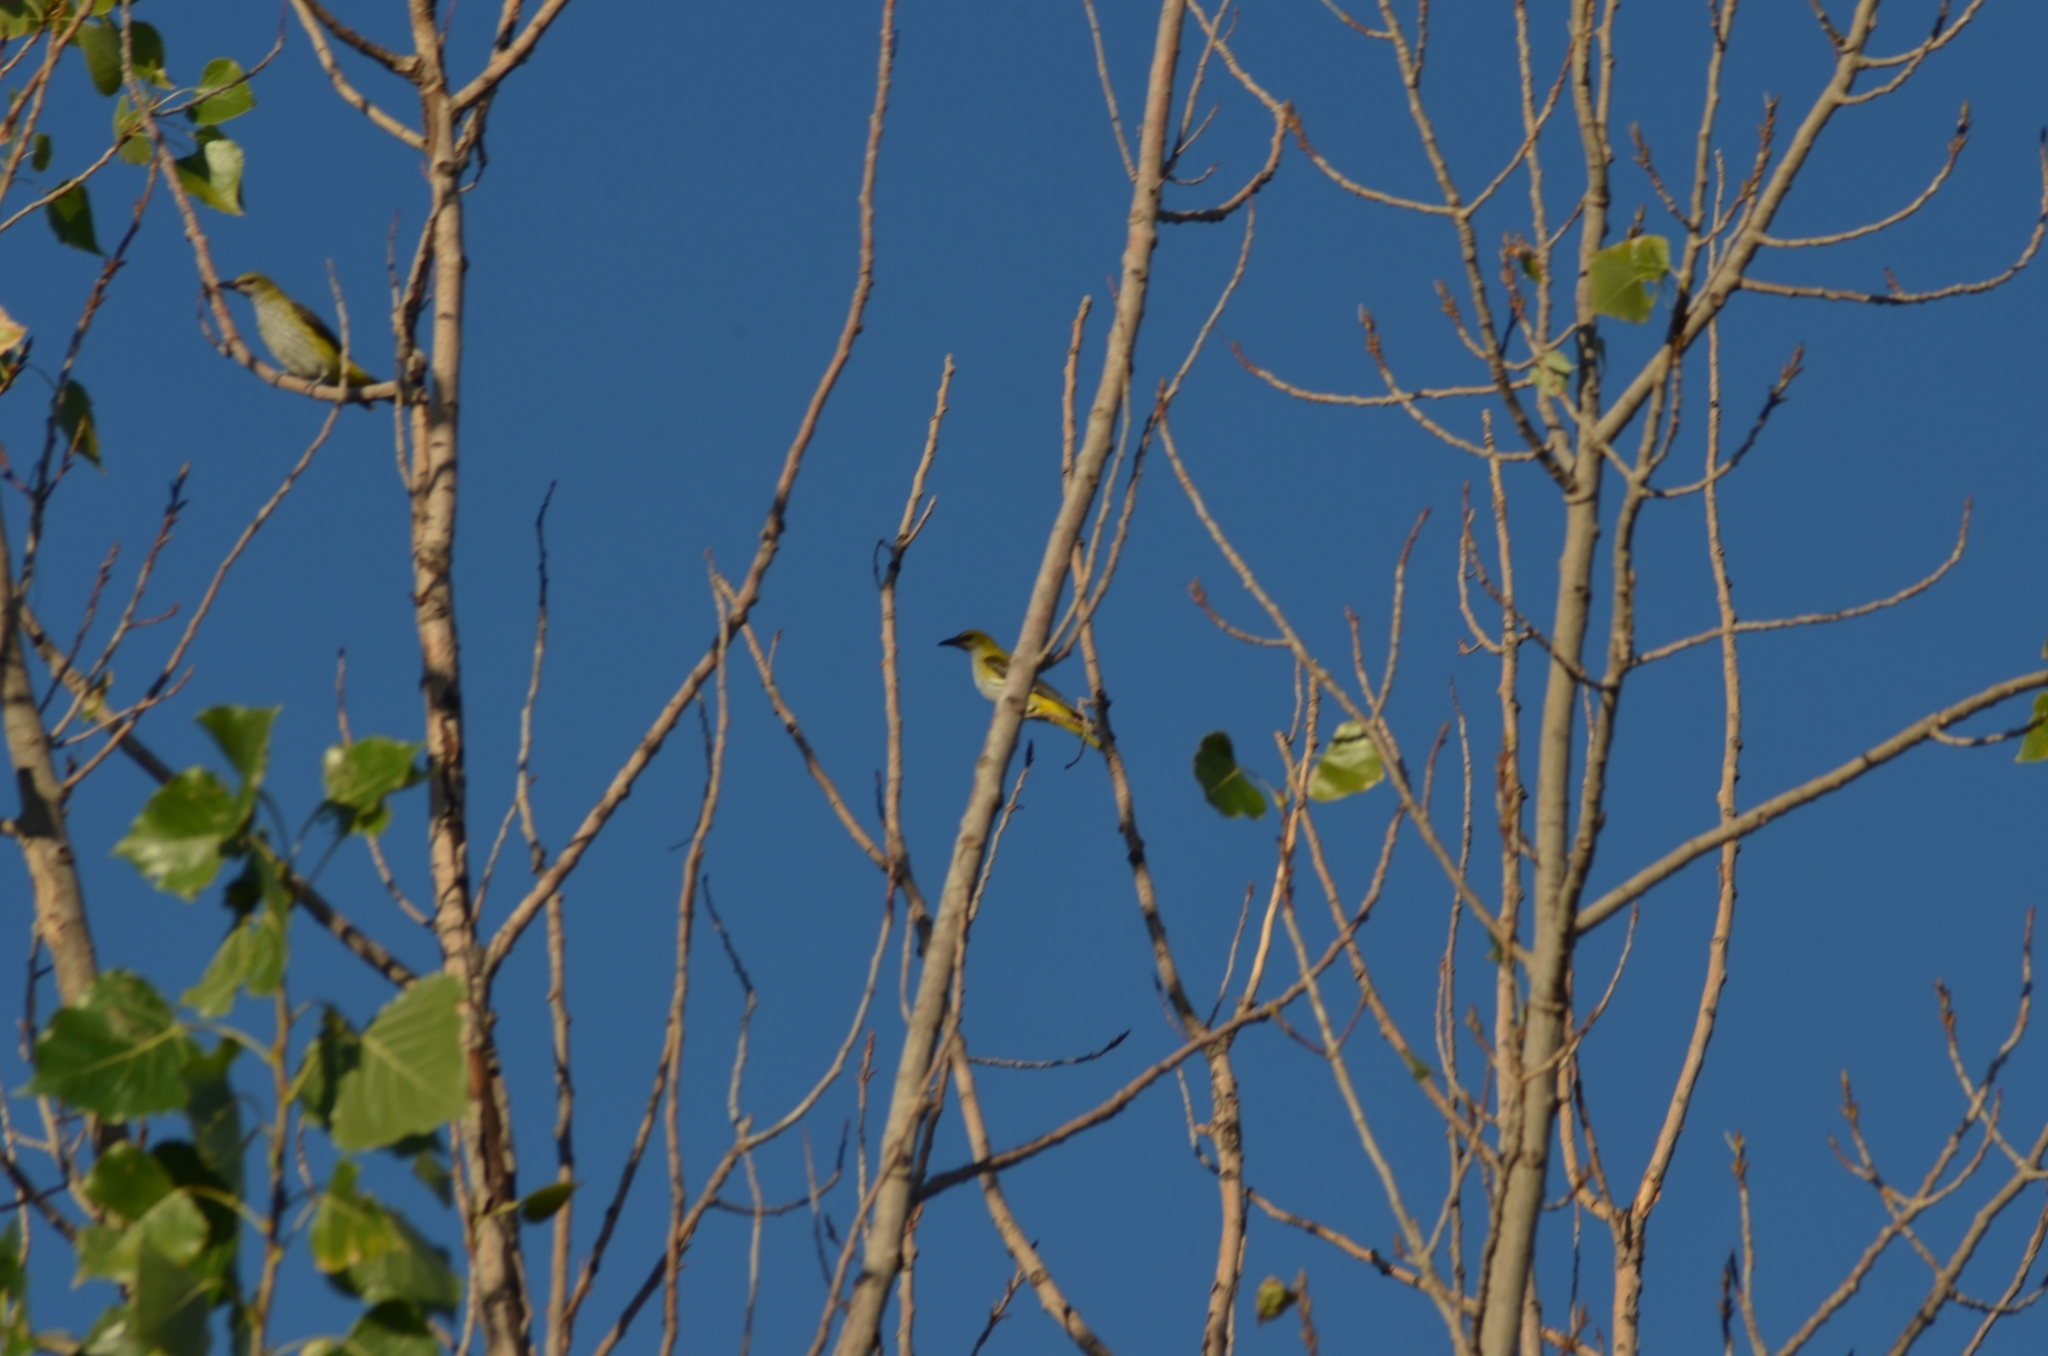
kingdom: Animalia
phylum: Chordata
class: Aves
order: Passeriformes
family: Oriolidae
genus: Oriolus
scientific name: Oriolus oriolus
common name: Eurasian golden oriole
